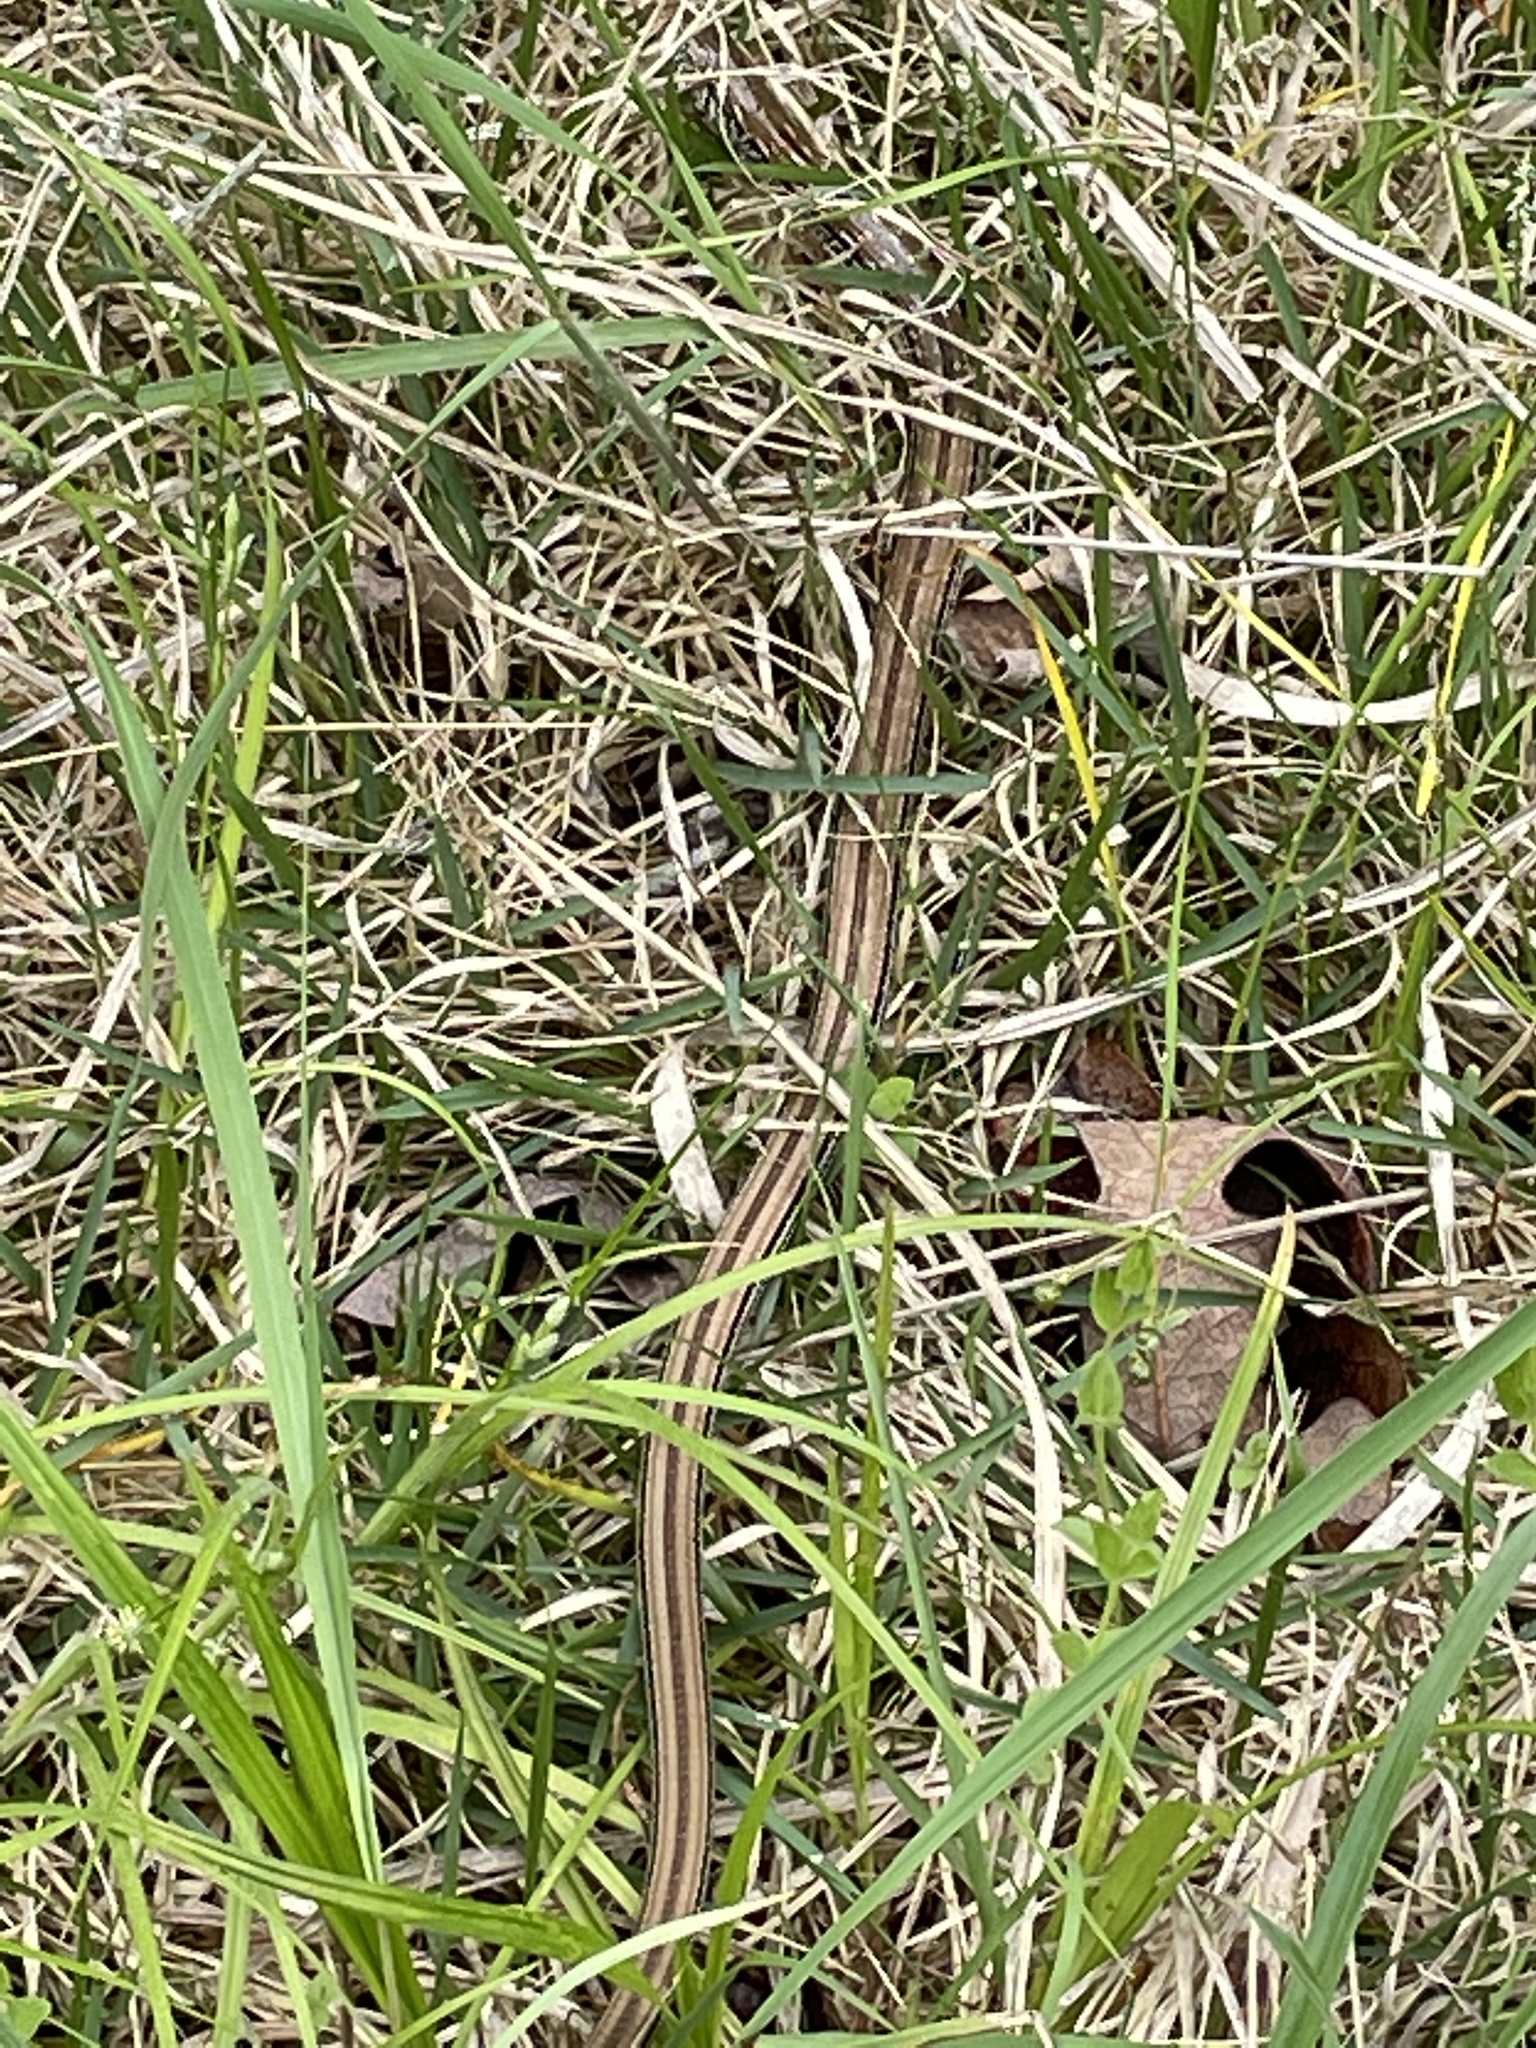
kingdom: Animalia
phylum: Chordata
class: Squamata
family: Anguidae
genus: Ophisaurus
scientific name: Ophisaurus attenuatus
